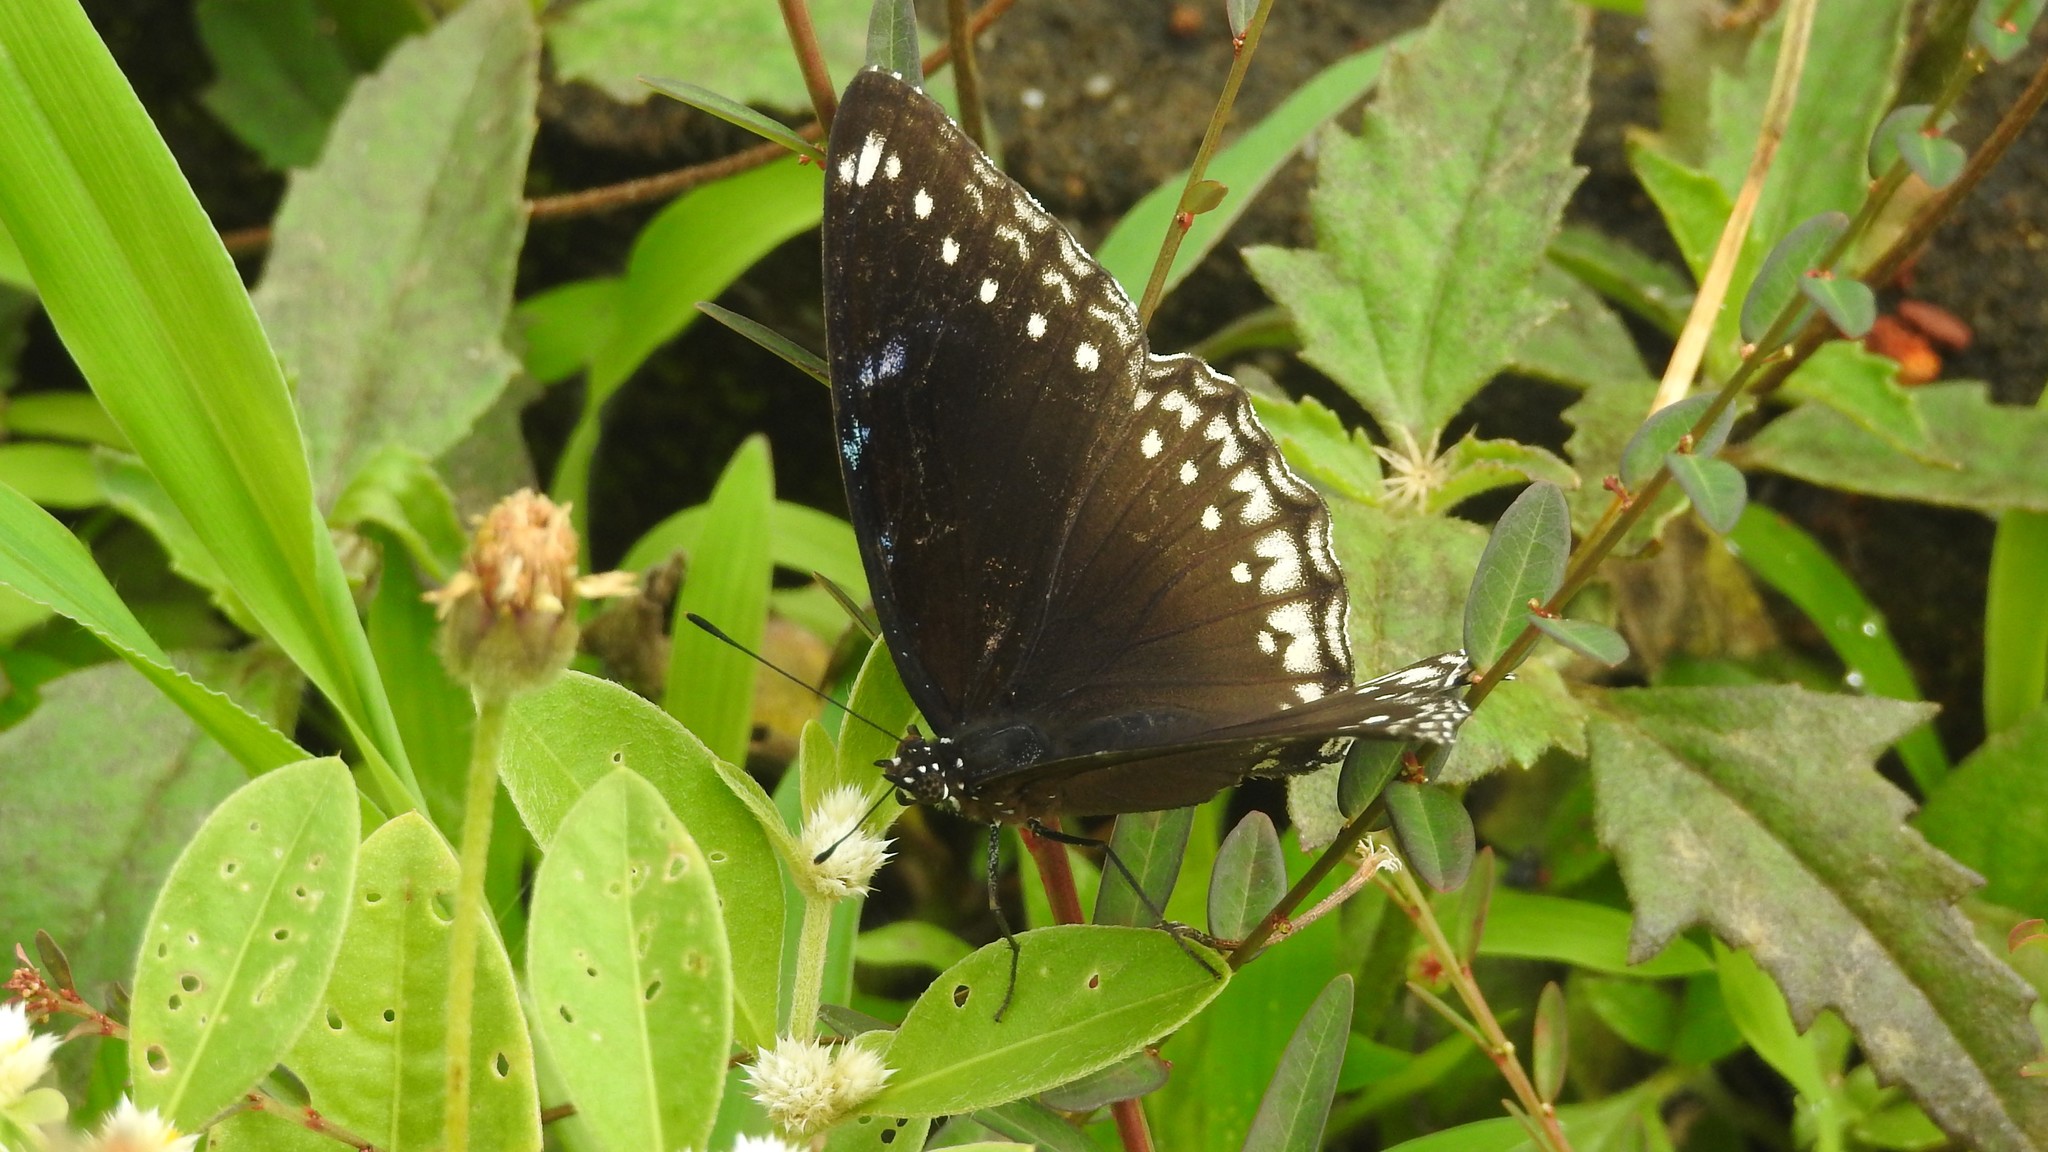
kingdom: Animalia
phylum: Arthropoda
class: Insecta
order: Lepidoptera
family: Nymphalidae
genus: Hypolimnas
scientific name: Hypolimnas bolina
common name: Great eggfly
